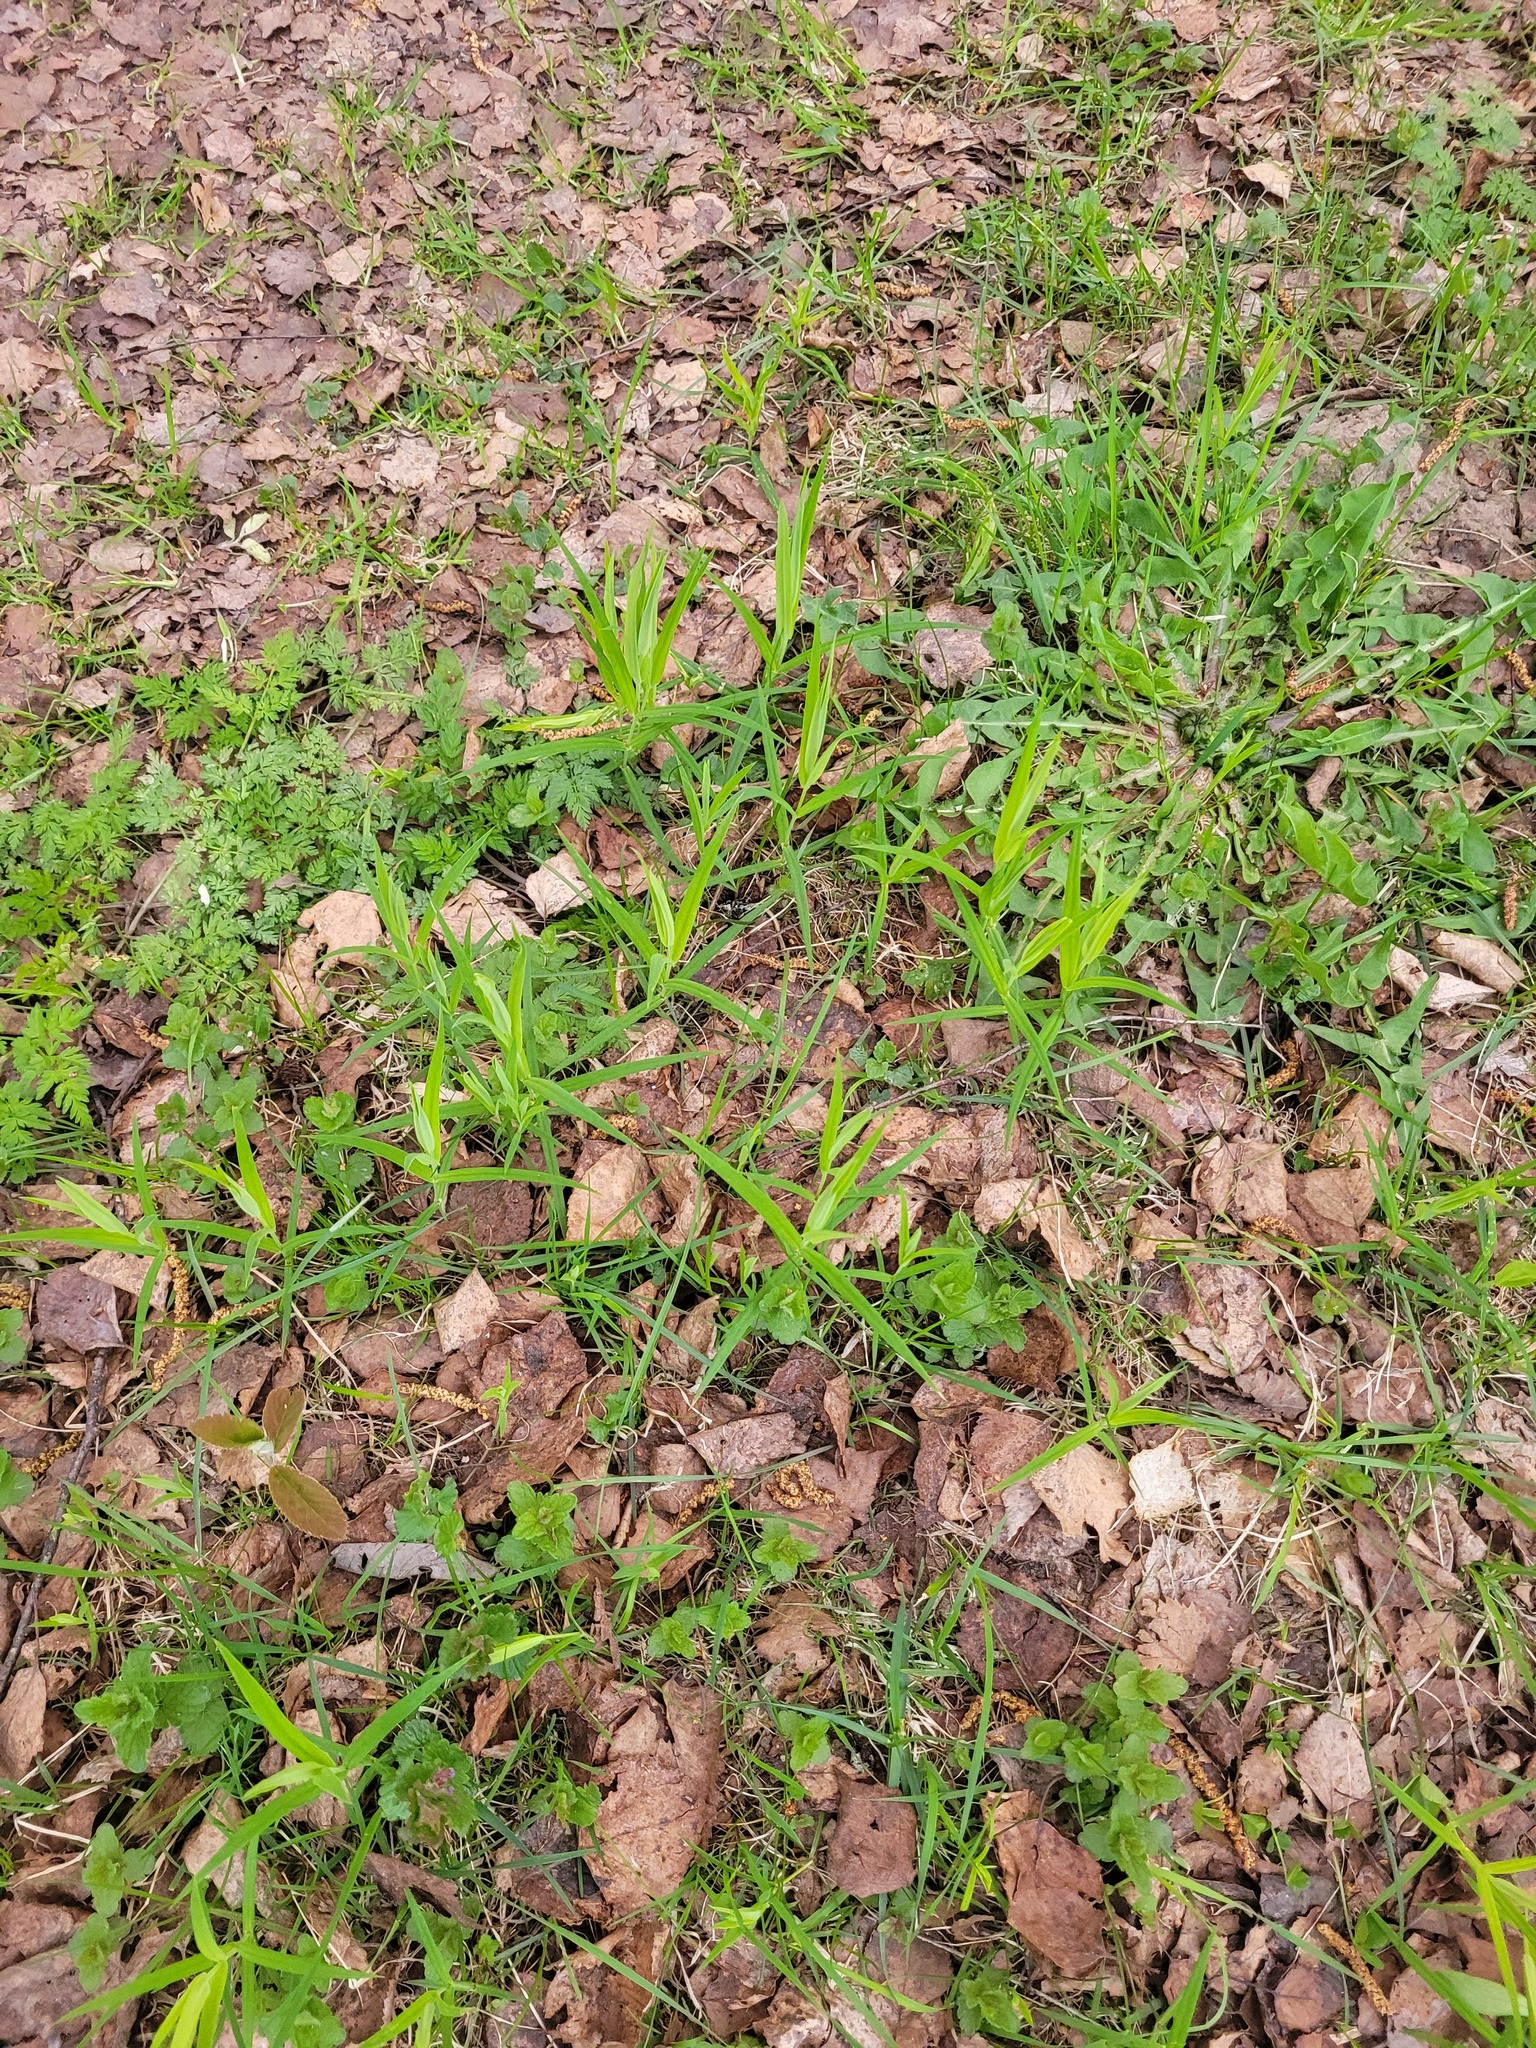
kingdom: Plantae
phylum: Tracheophyta
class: Magnoliopsida
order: Caryophyllales
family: Caryophyllaceae
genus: Rabelera
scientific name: Rabelera holostea
